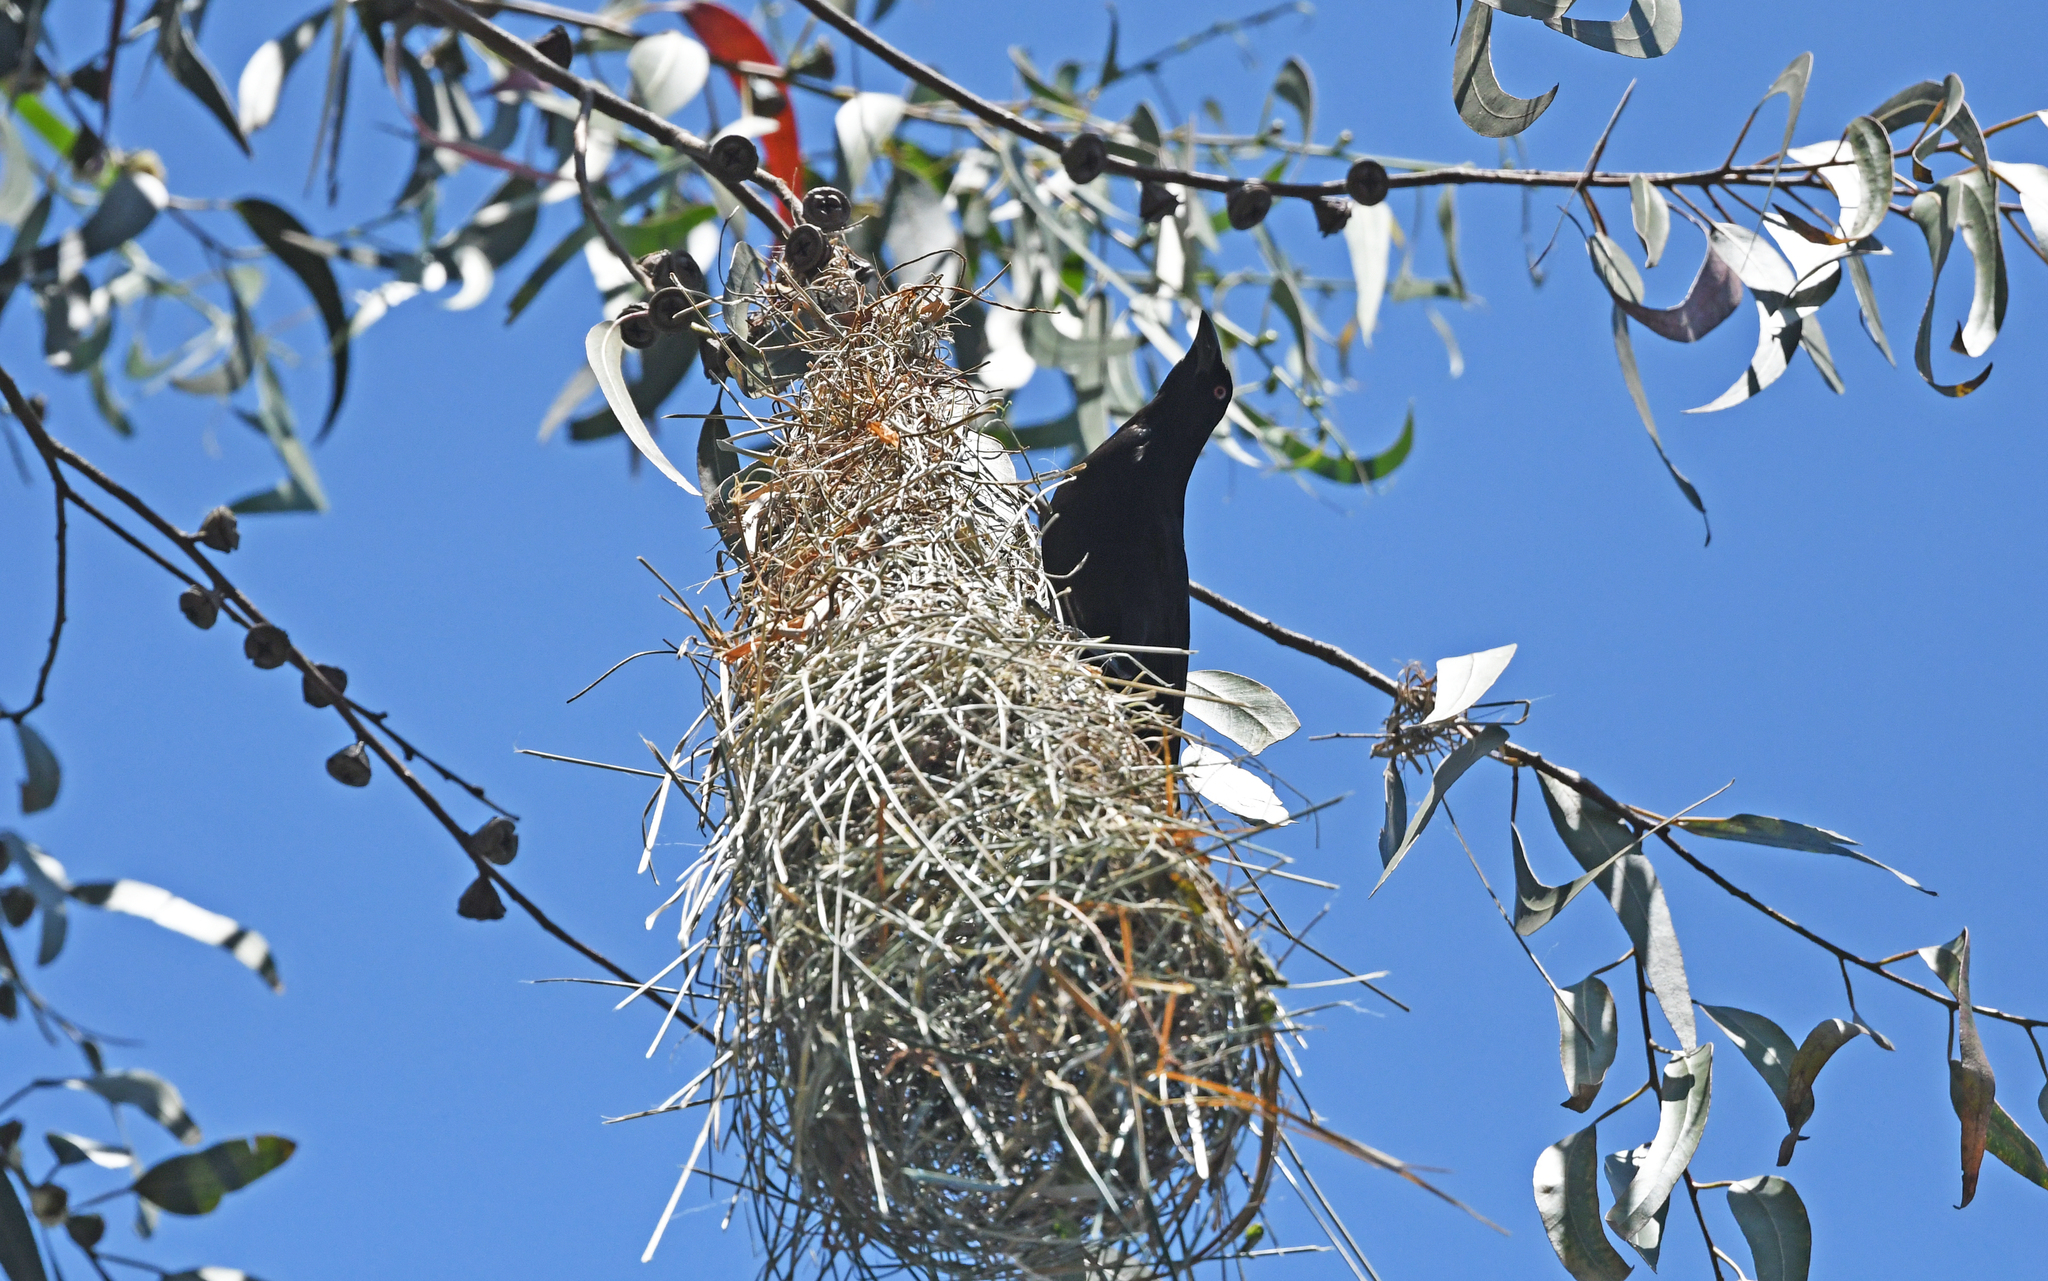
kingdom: Animalia
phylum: Chordata
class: Aves
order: Passeriformes
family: Icteridae
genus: Molothrus
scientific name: Molothrus oryzivorus
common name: Giant cowbird
